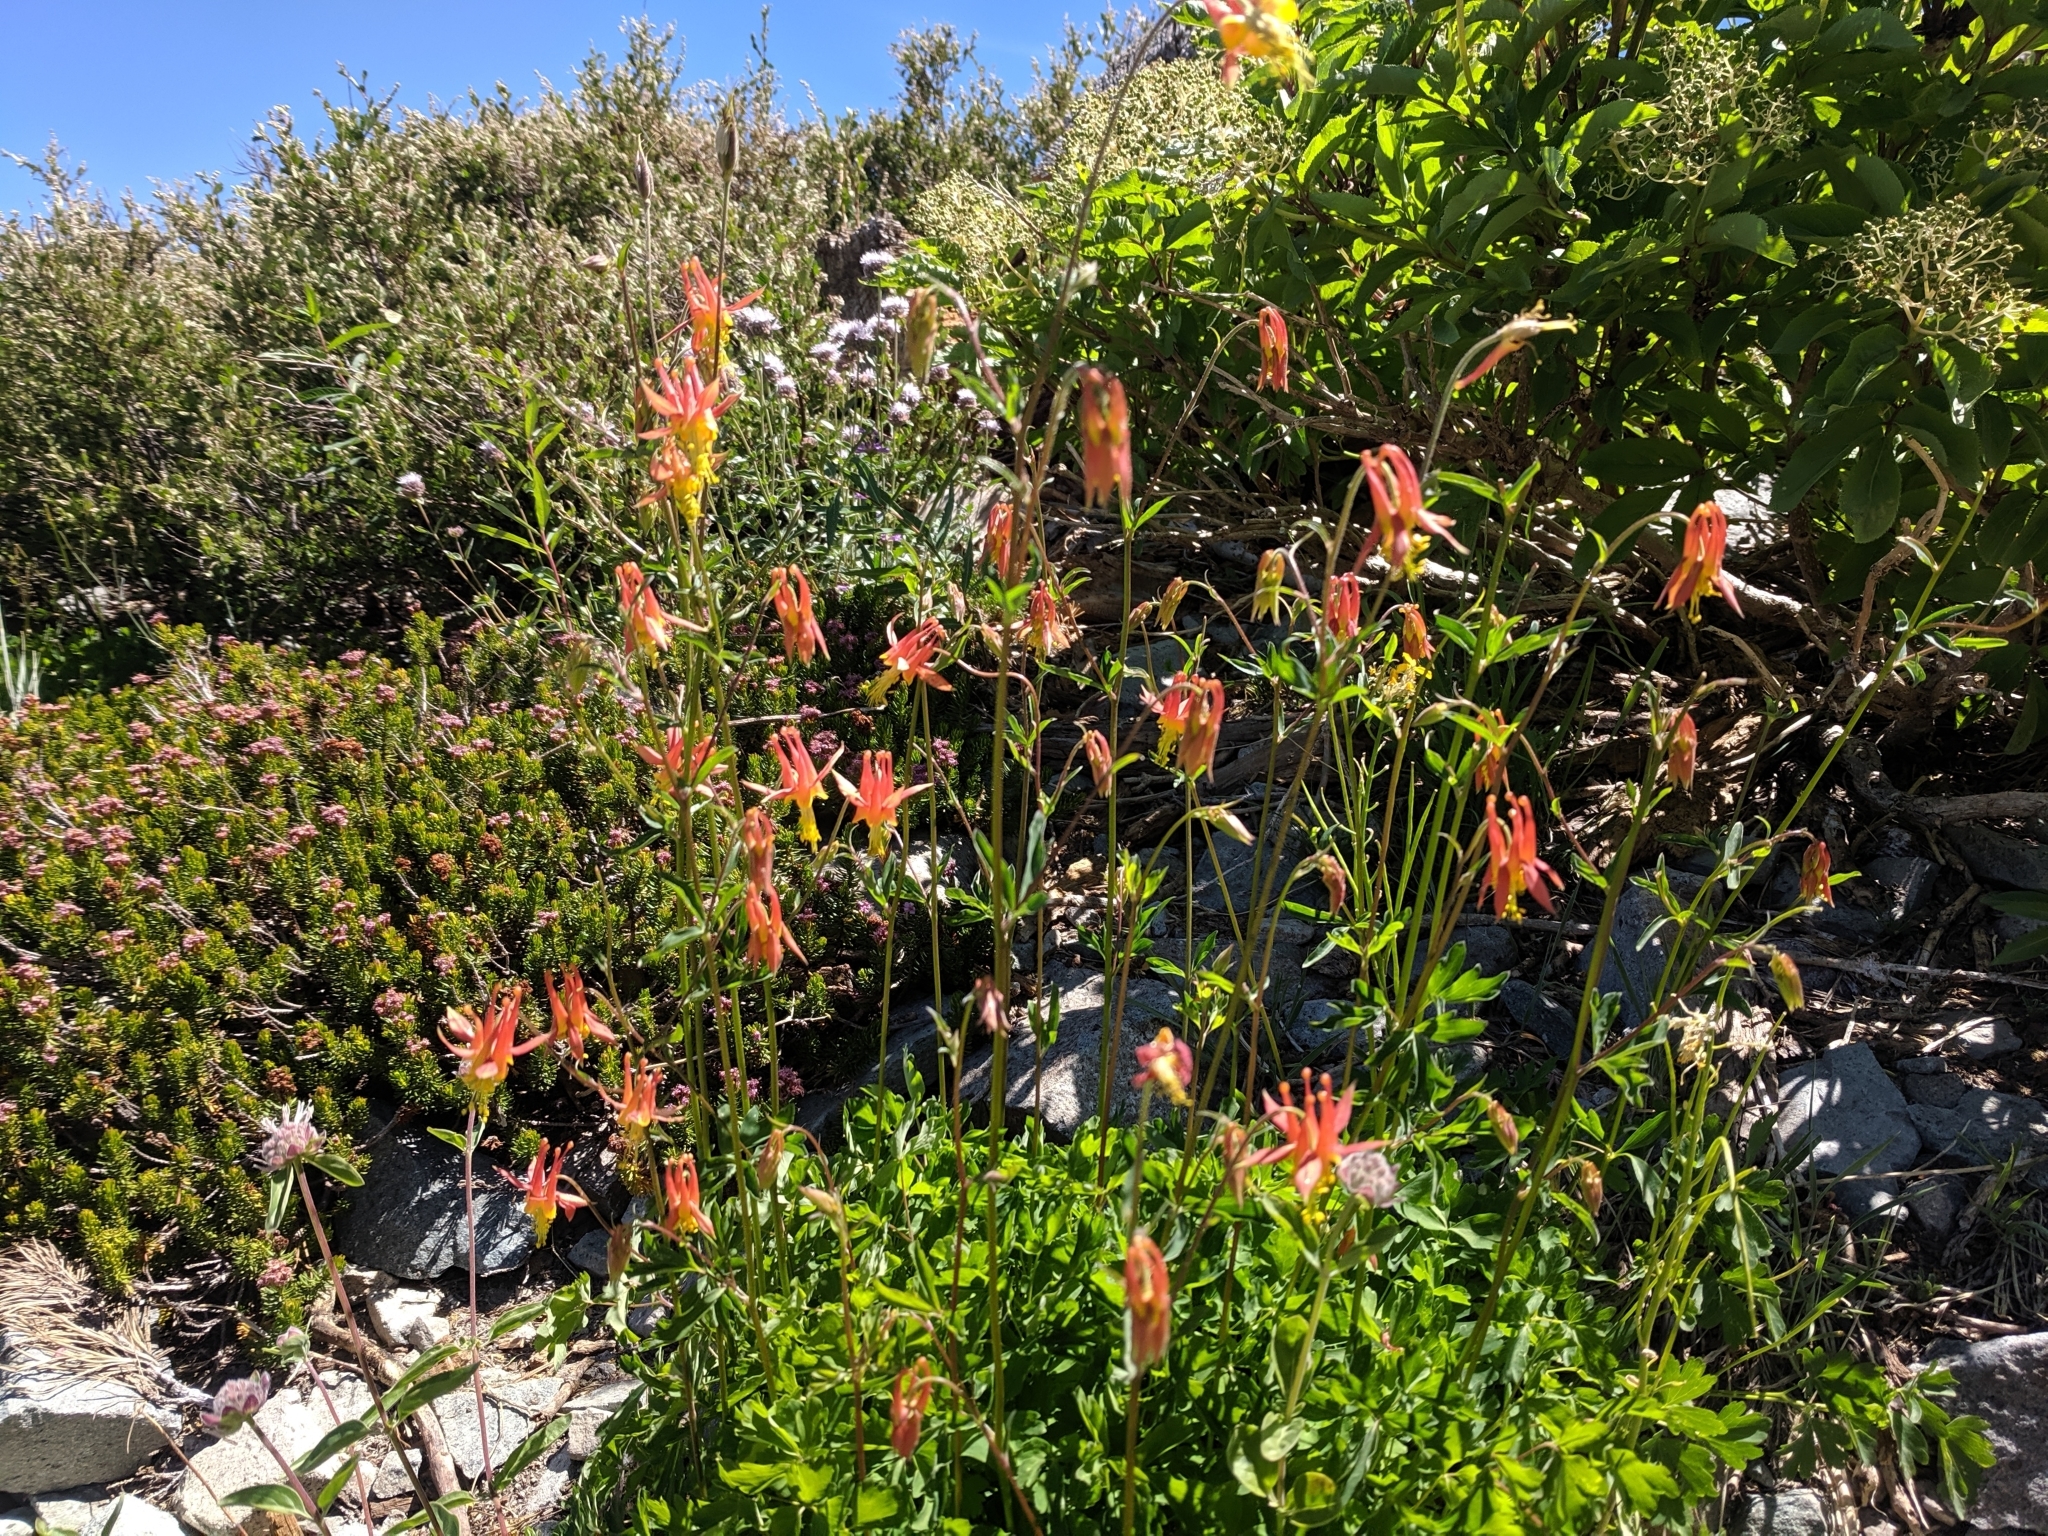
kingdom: Plantae
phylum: Tracheophyta
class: Magnoliopsida
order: Ranunculales
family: Ranunculaceae
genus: Aquilegia
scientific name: Aquilegia formosa
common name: Sitka columbine
